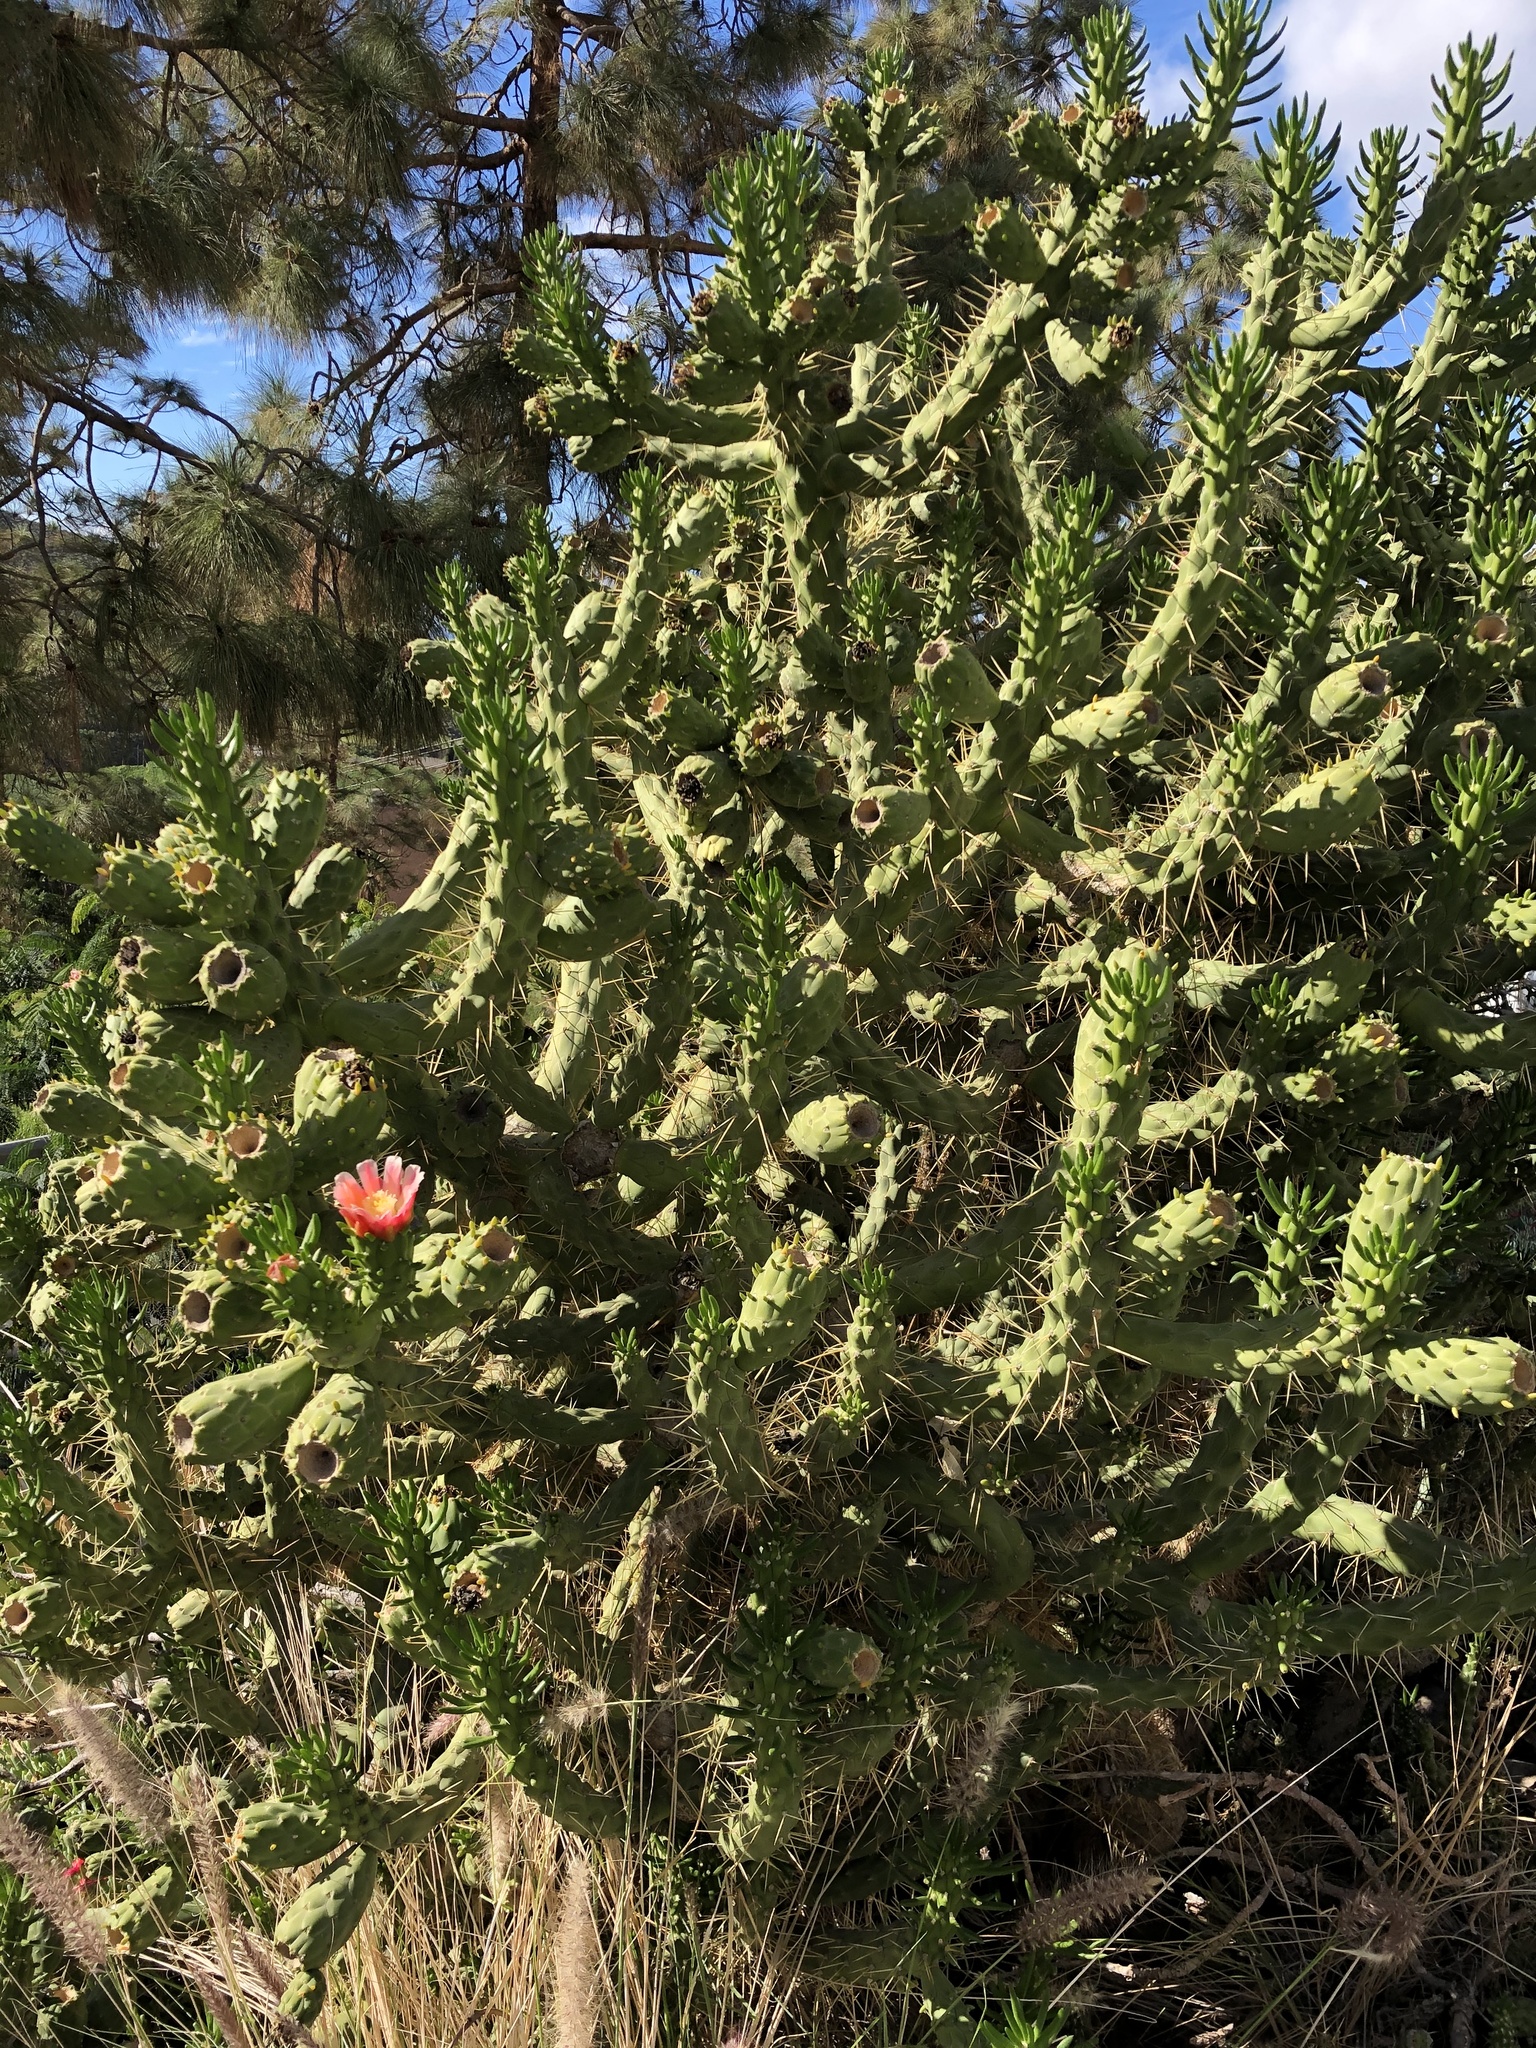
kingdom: Plantae
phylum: Tracheophyta
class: Magnoliopsida
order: Caryophyllales
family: Cactaceae
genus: Austrocylindropuntia
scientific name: Austrocylindropuntia subulata
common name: Eve's needle cactus
